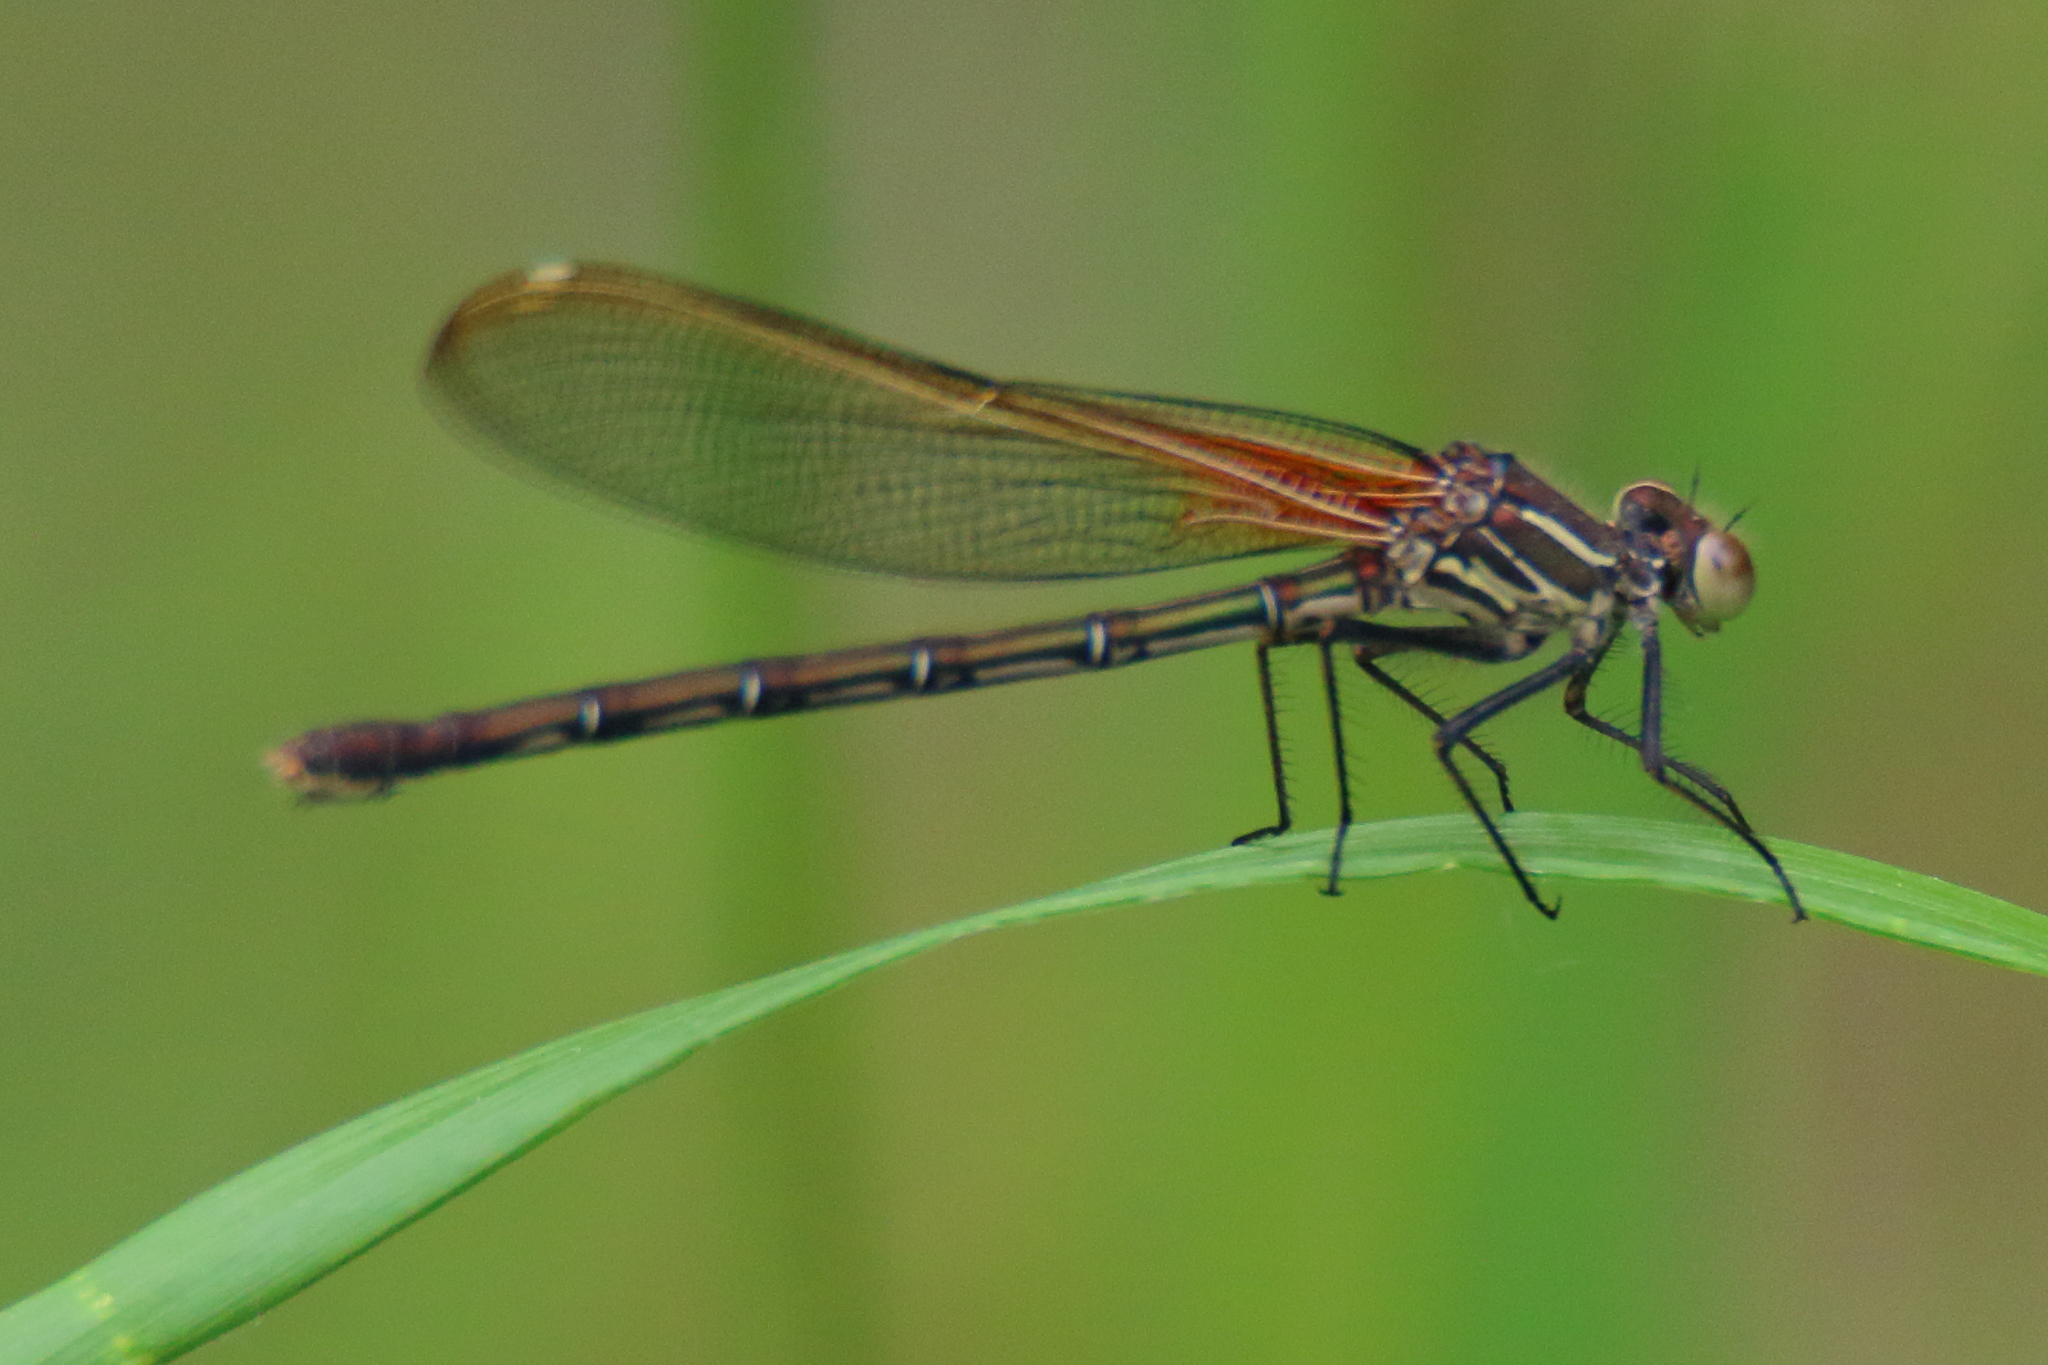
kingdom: Animalia
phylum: Arthropoda
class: Insecta
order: Odonata
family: Calopterygidae
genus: Hetaerina
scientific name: Hetaerina americana
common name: American rubyspot
